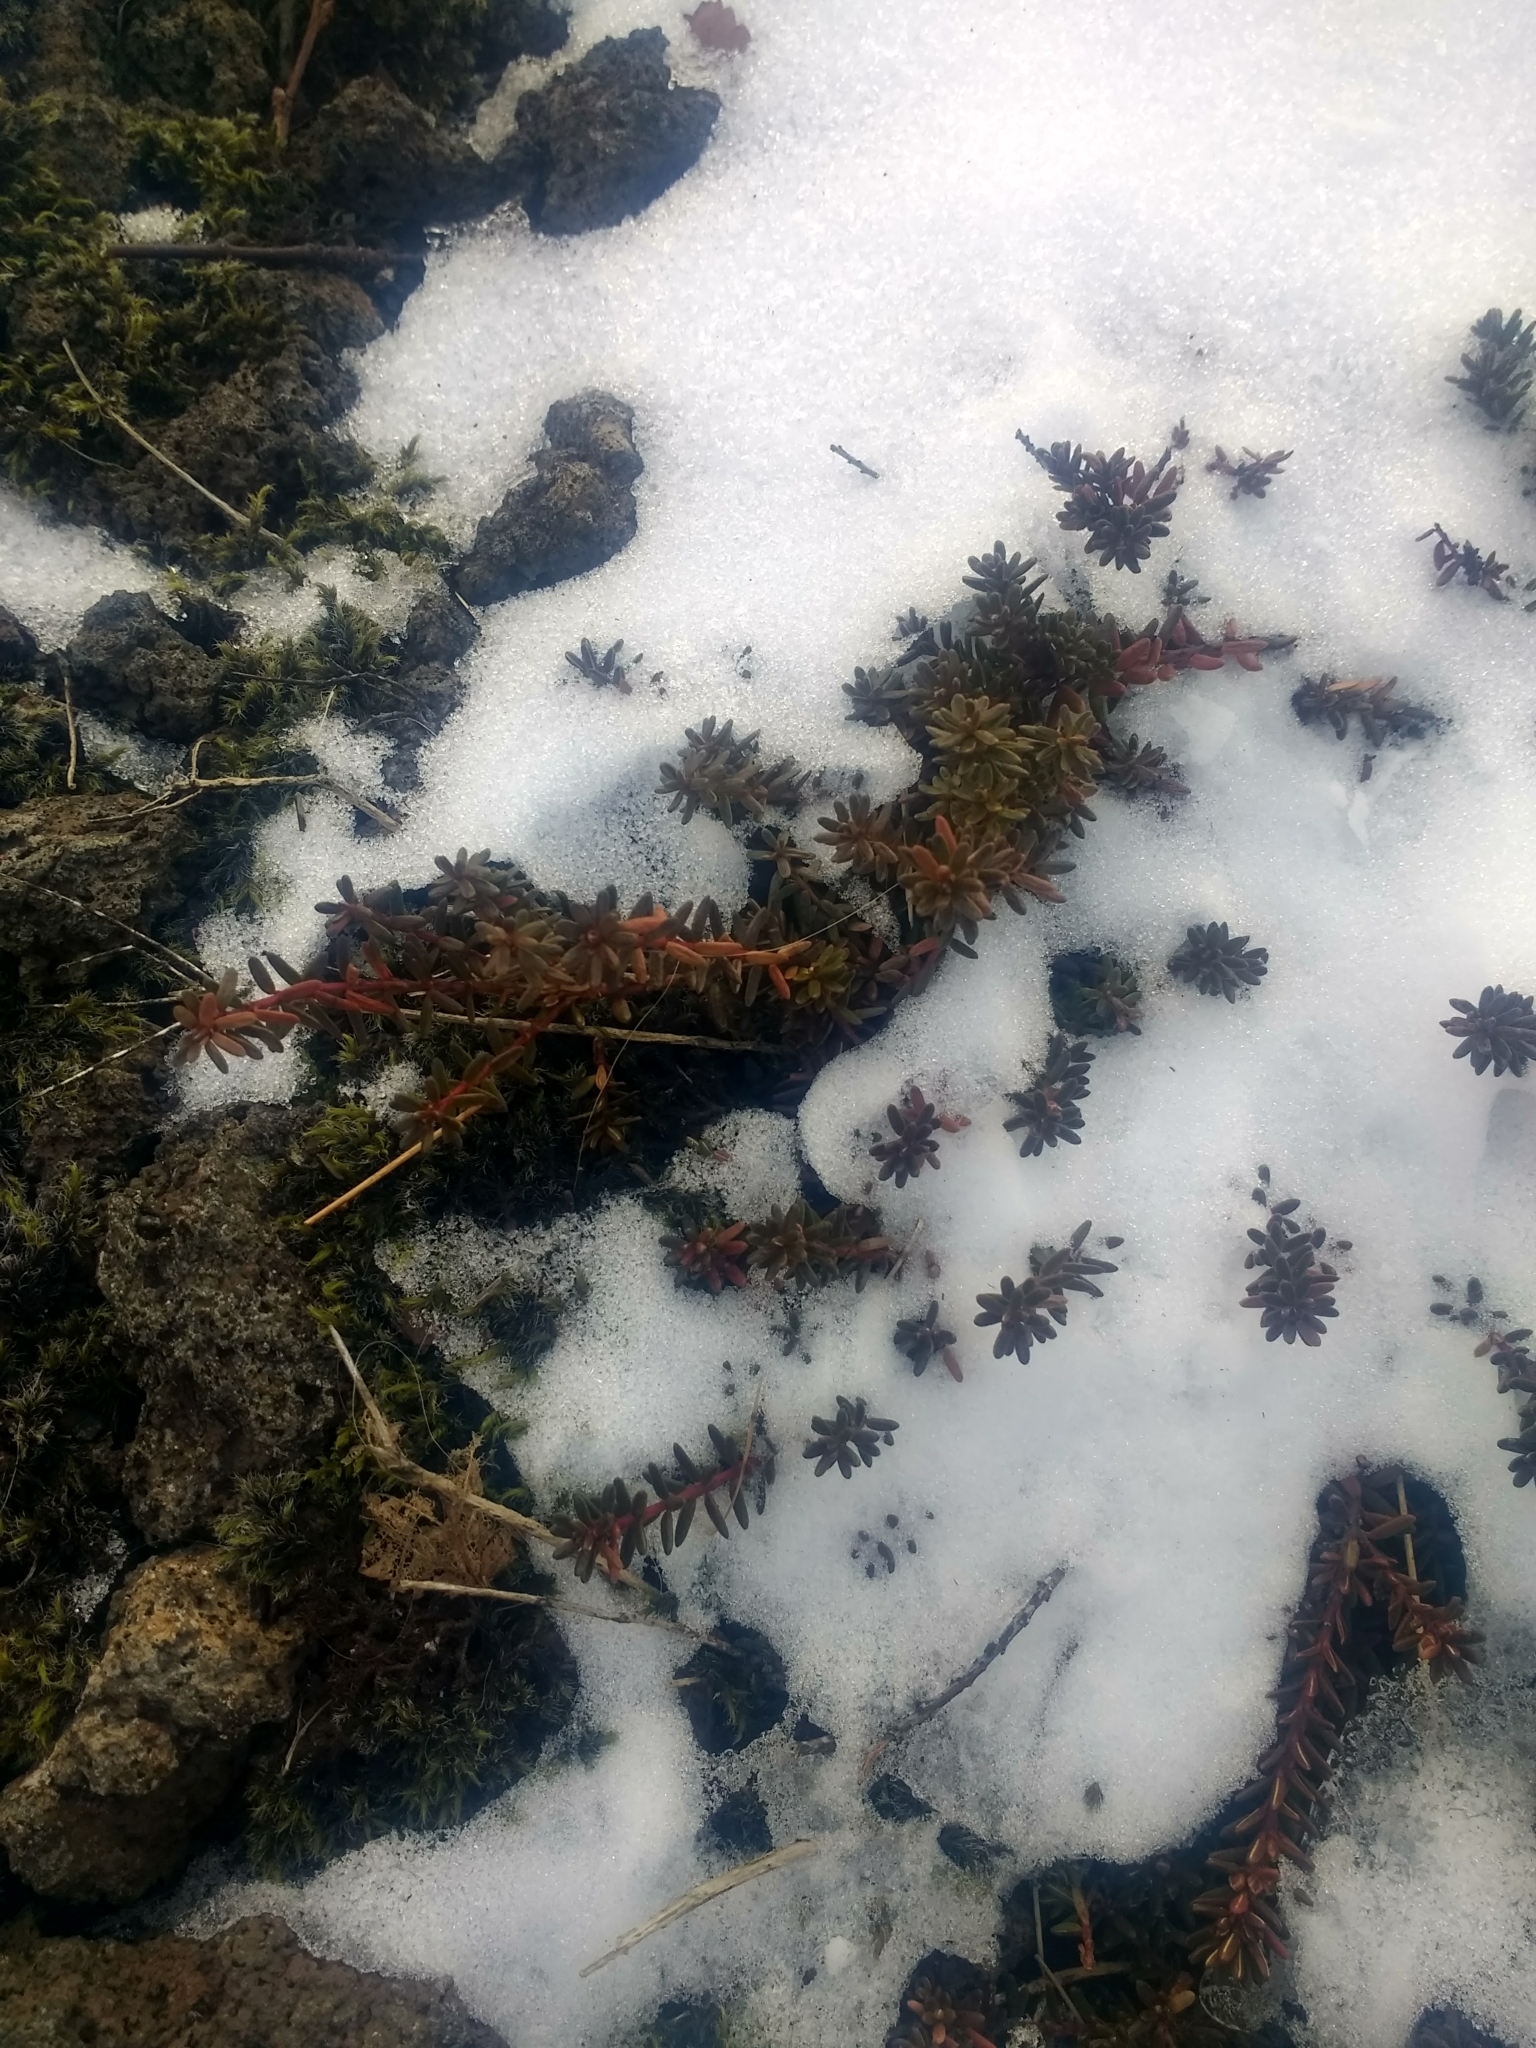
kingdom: Plantae
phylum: Tracheophyta
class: Magnoliopsida
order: Ericales
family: Ericaceae
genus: Empetrum
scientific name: Empetrum nigrum
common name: Black crowberry
